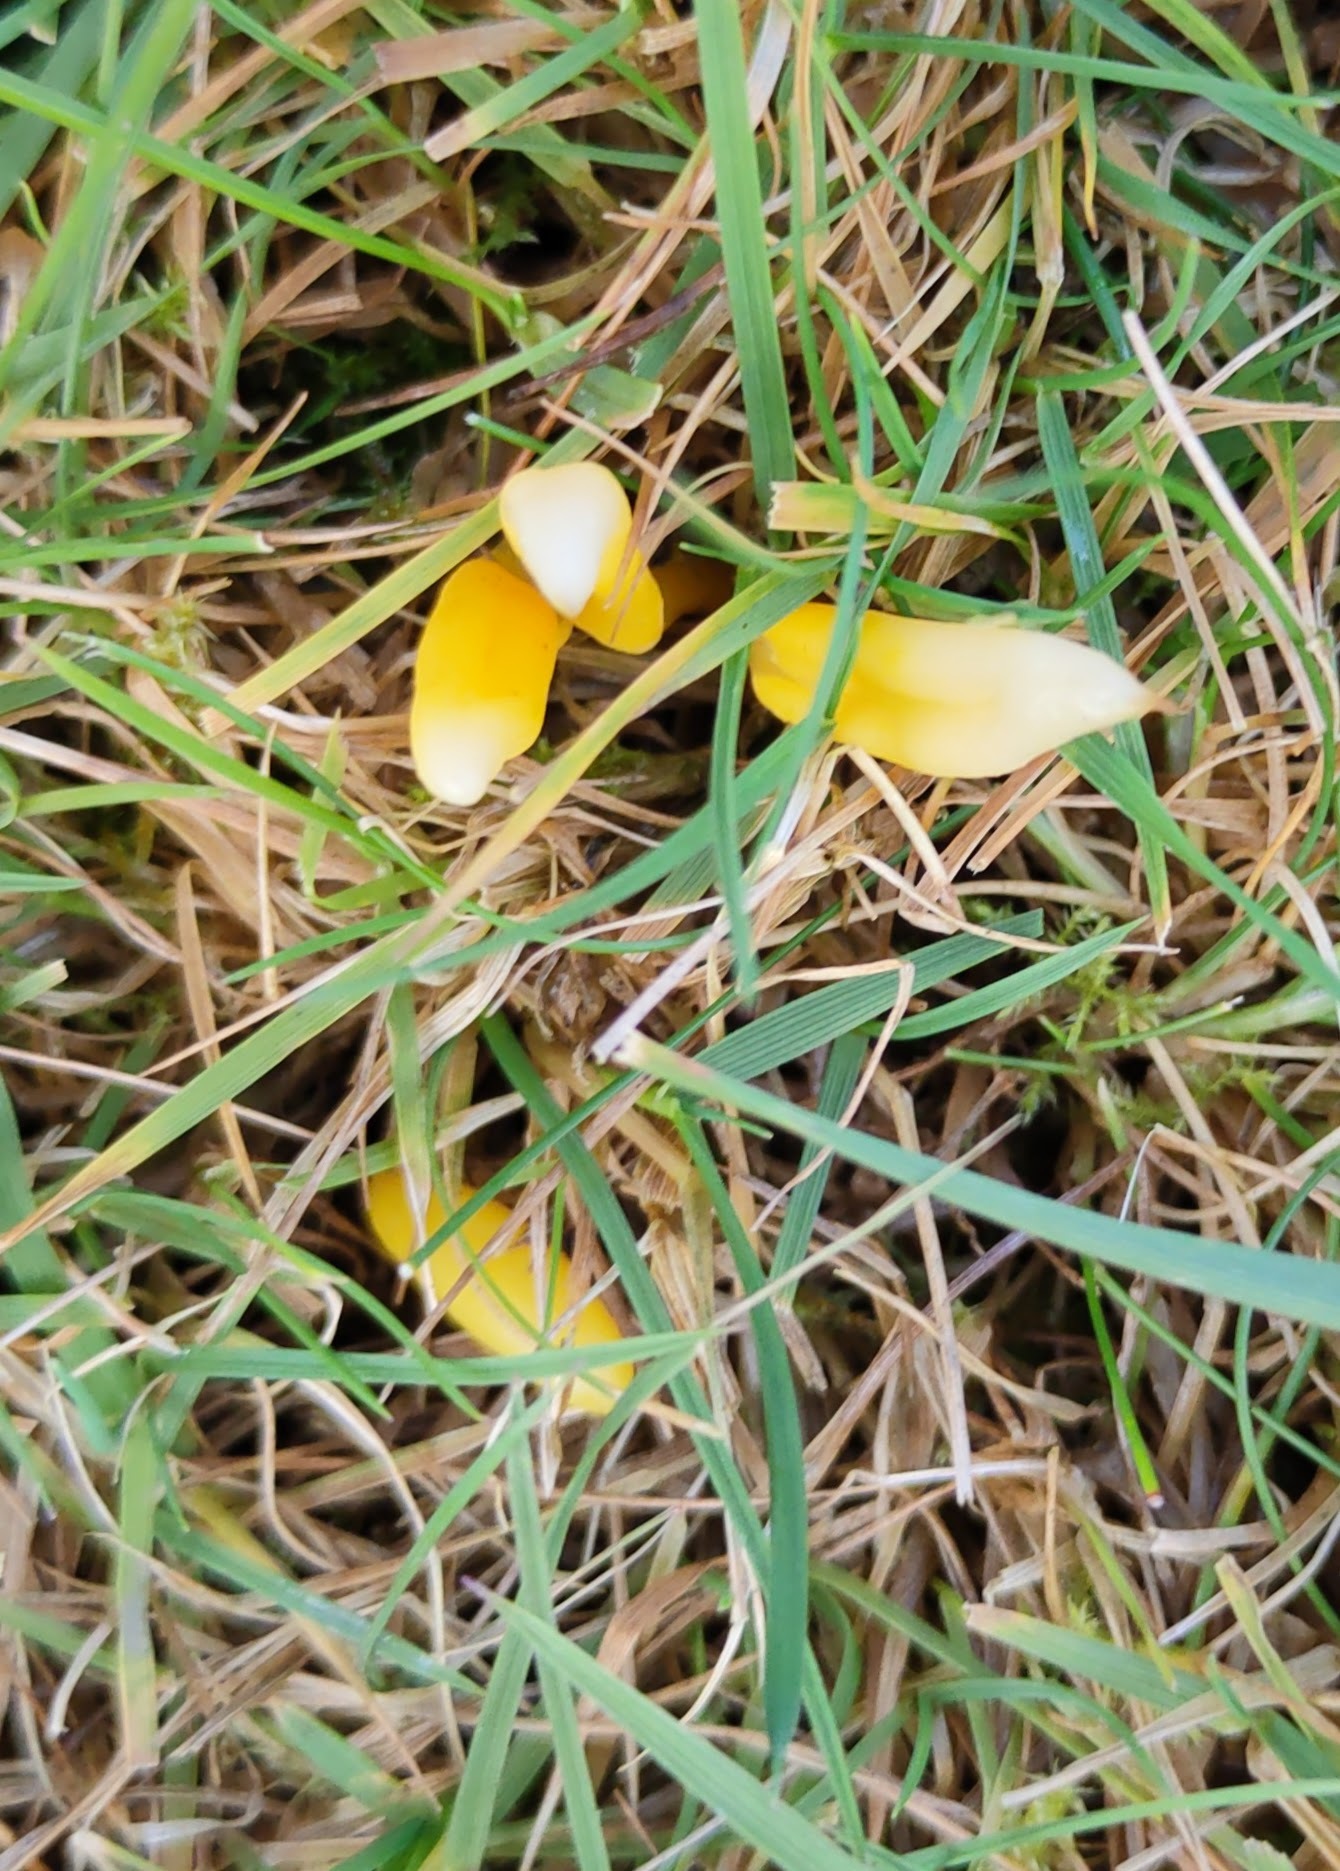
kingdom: Fungi
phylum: Basidiomycota
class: Agaricomycetes
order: Agaricales
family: Clavariaceae
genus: Clavulinopsis
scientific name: Clavulinopsis helvola
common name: Yellow club
